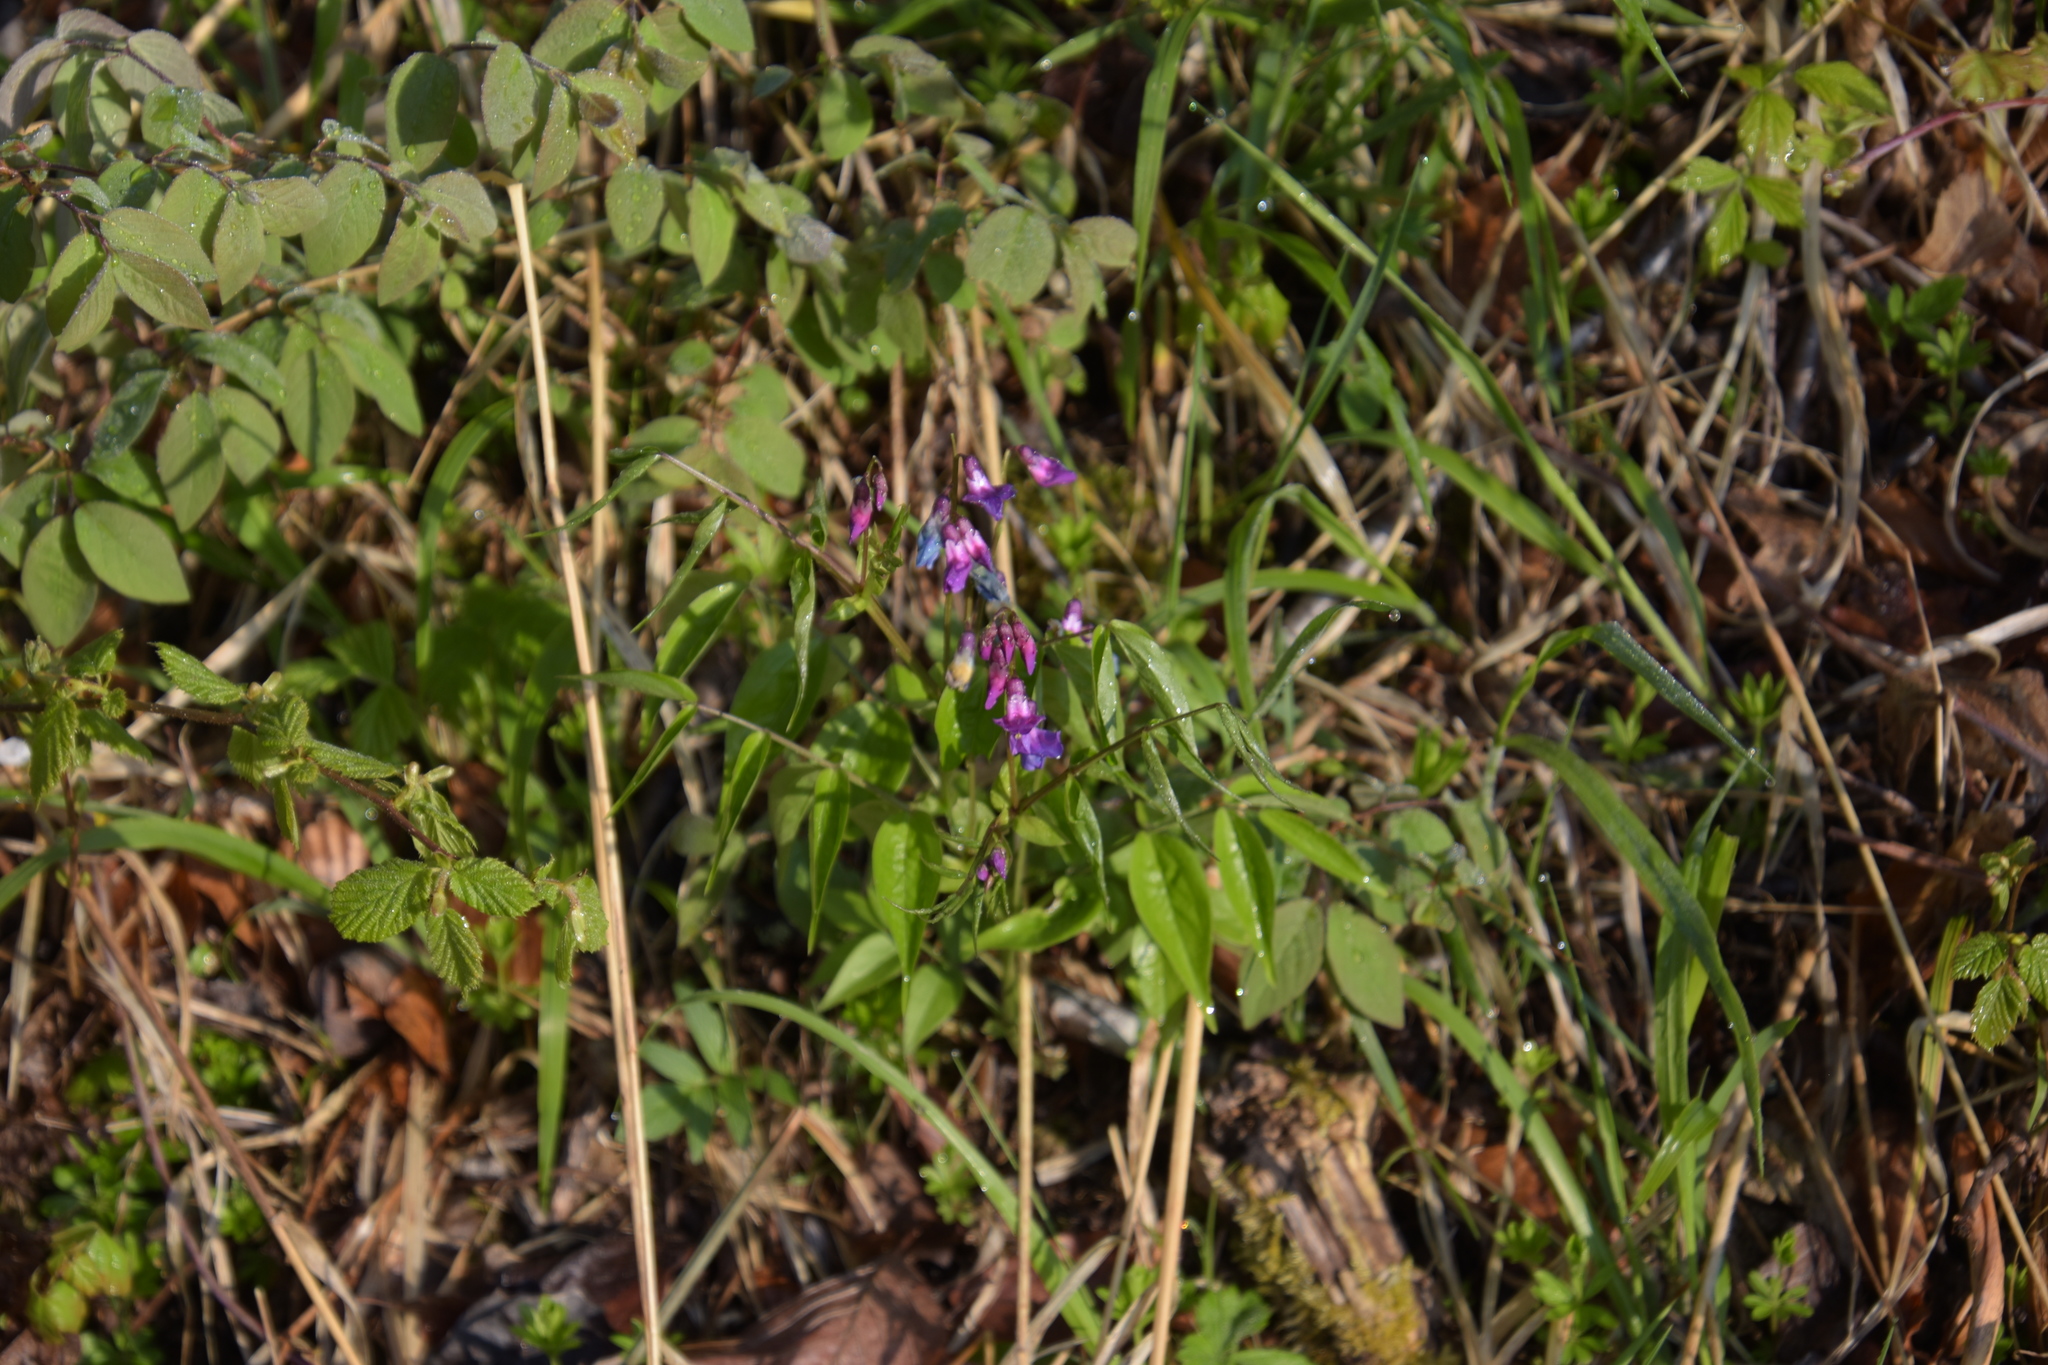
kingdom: Plantae
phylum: Tracheophyta
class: Magnoliopsida
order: Fabales
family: Fabaceae
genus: Lathyrus
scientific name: Lathyrus vernus
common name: Spring pea
